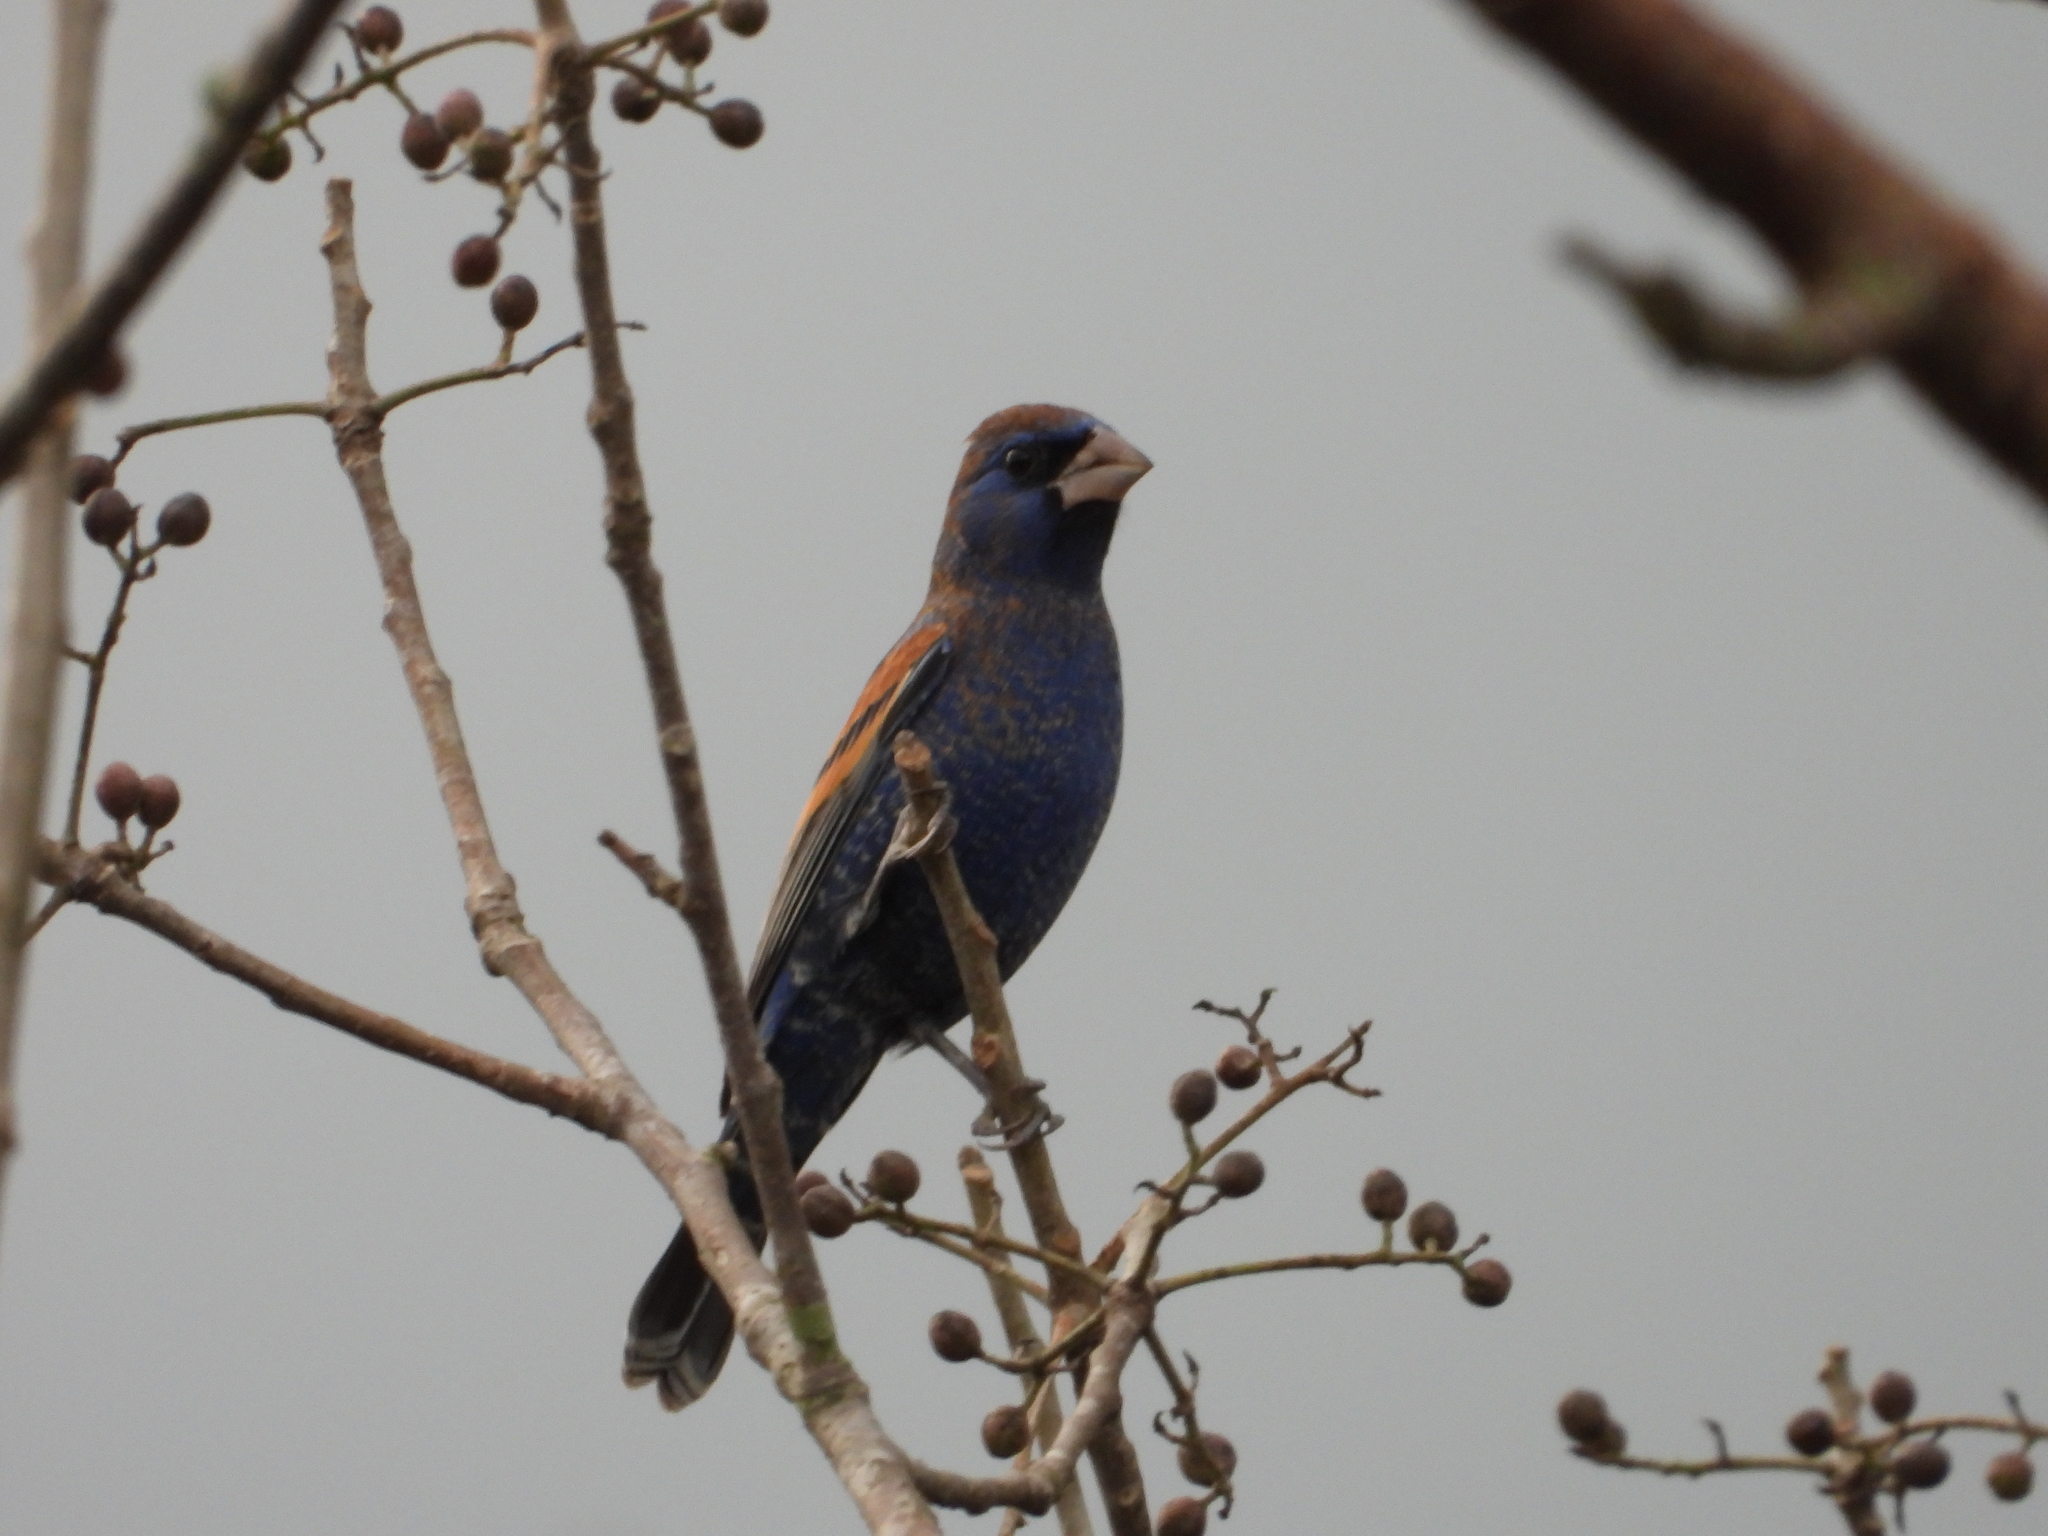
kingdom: Animalia
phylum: Chordata
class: Aves
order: Passeriformes
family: Cardinalidae
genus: Passerina
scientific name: Passerina caerulea
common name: Blue grosbeak
